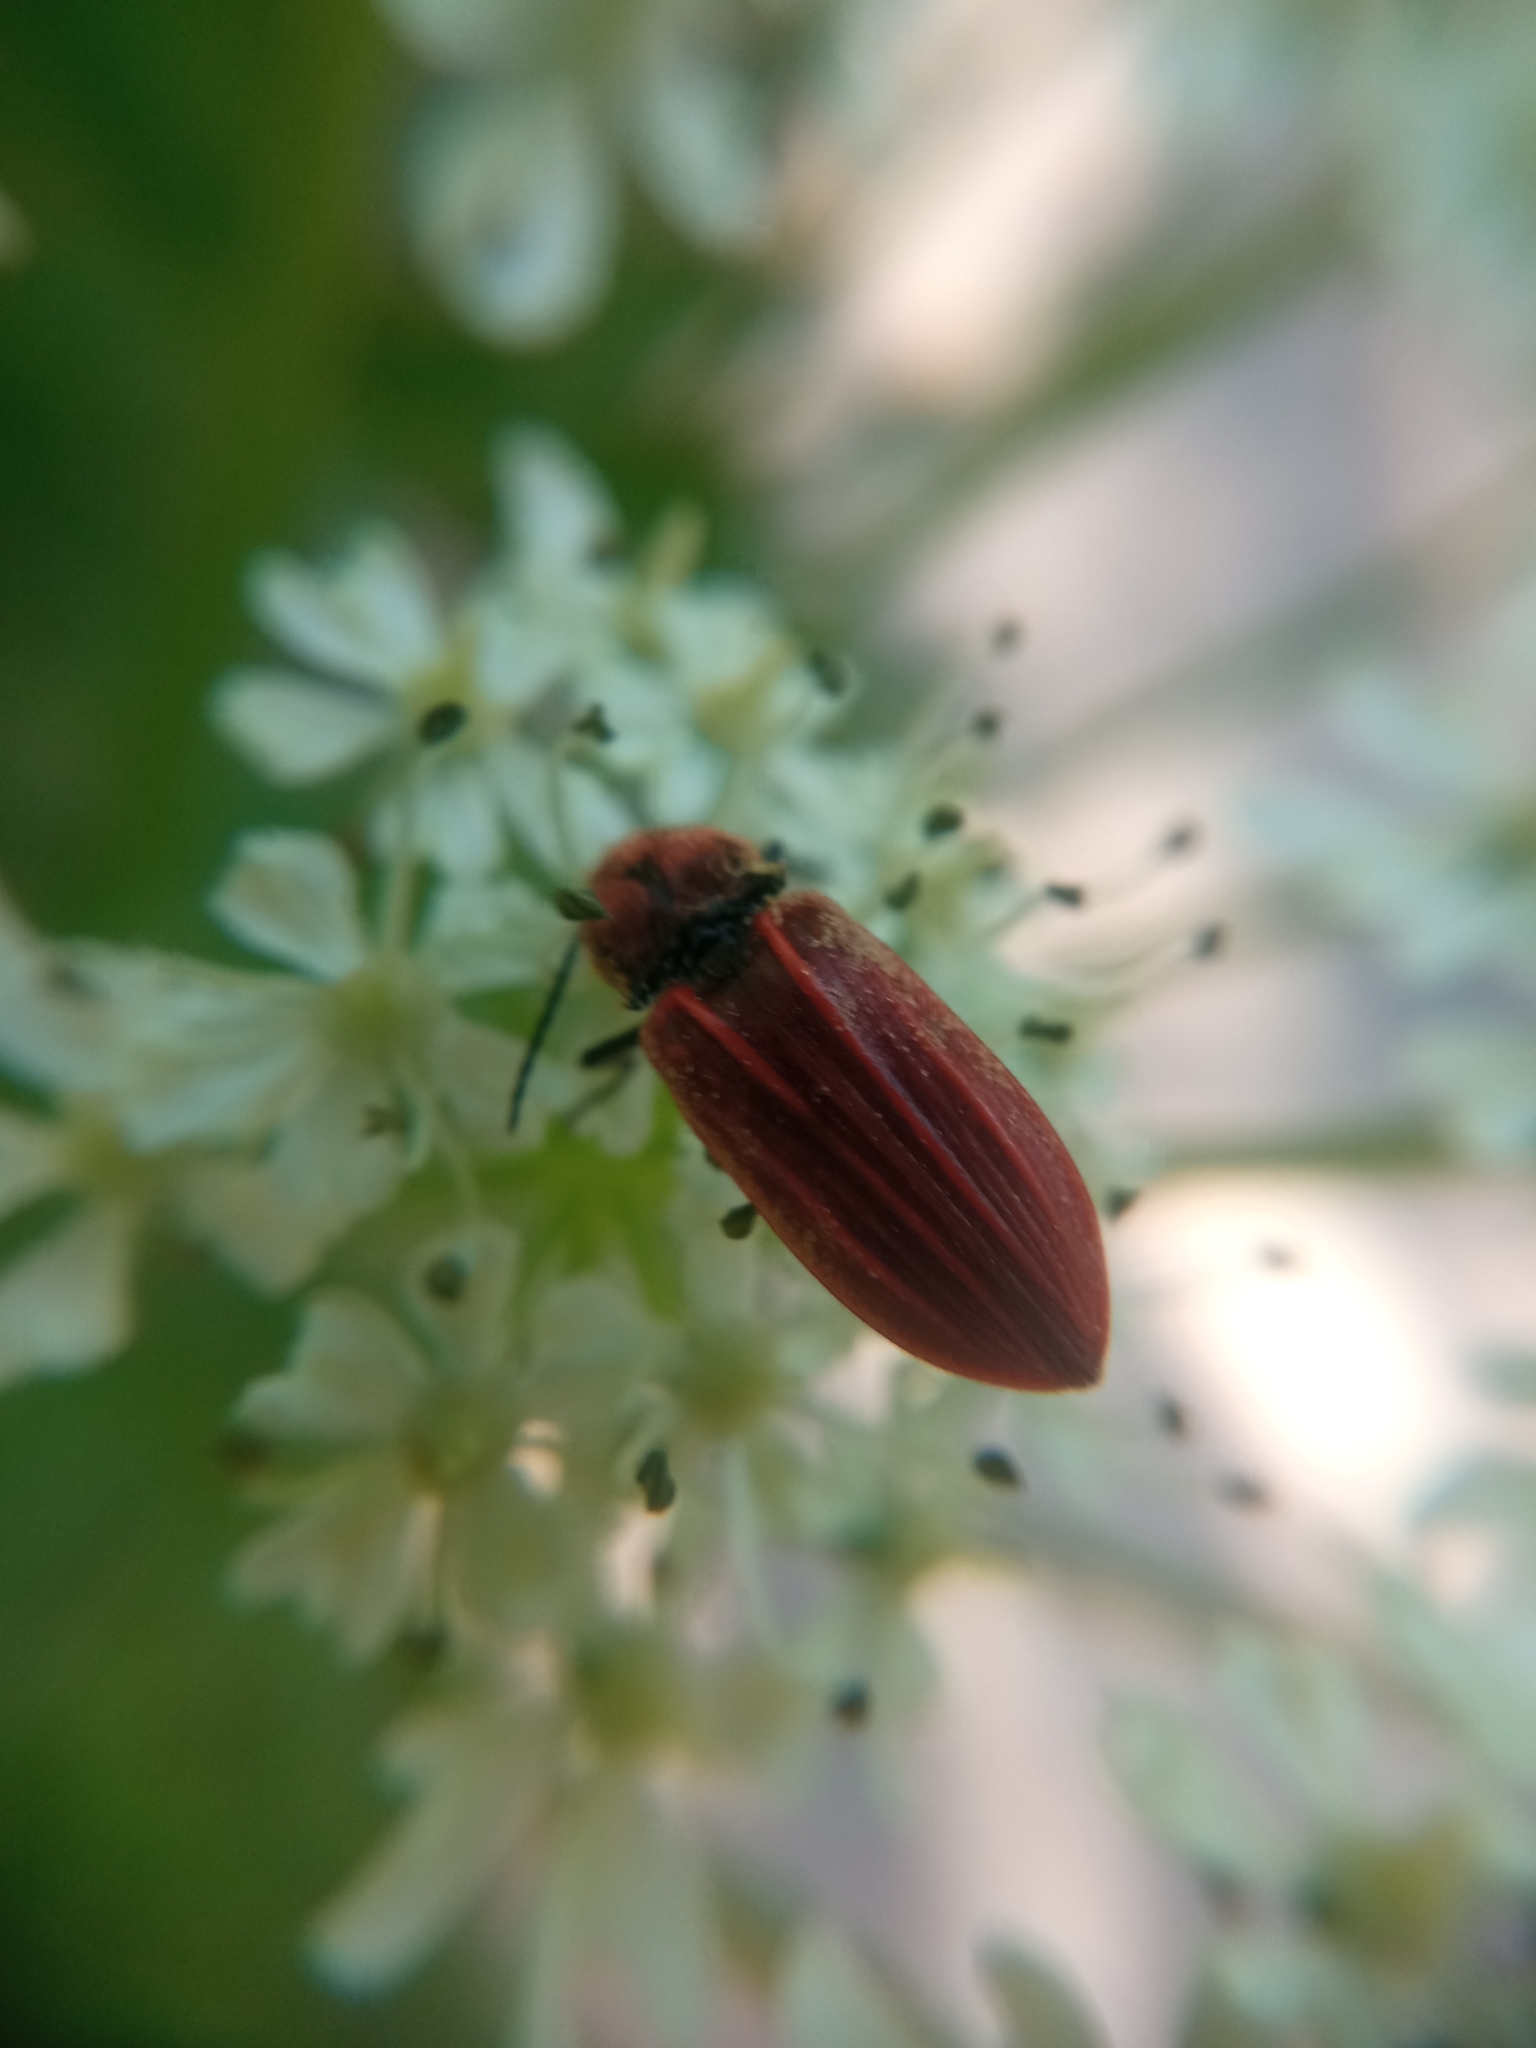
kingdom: Animalia
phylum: Arthropoda
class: Insecta
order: Coleoptera
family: Elateridae
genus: Anostirus
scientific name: Anostirus purpureus
